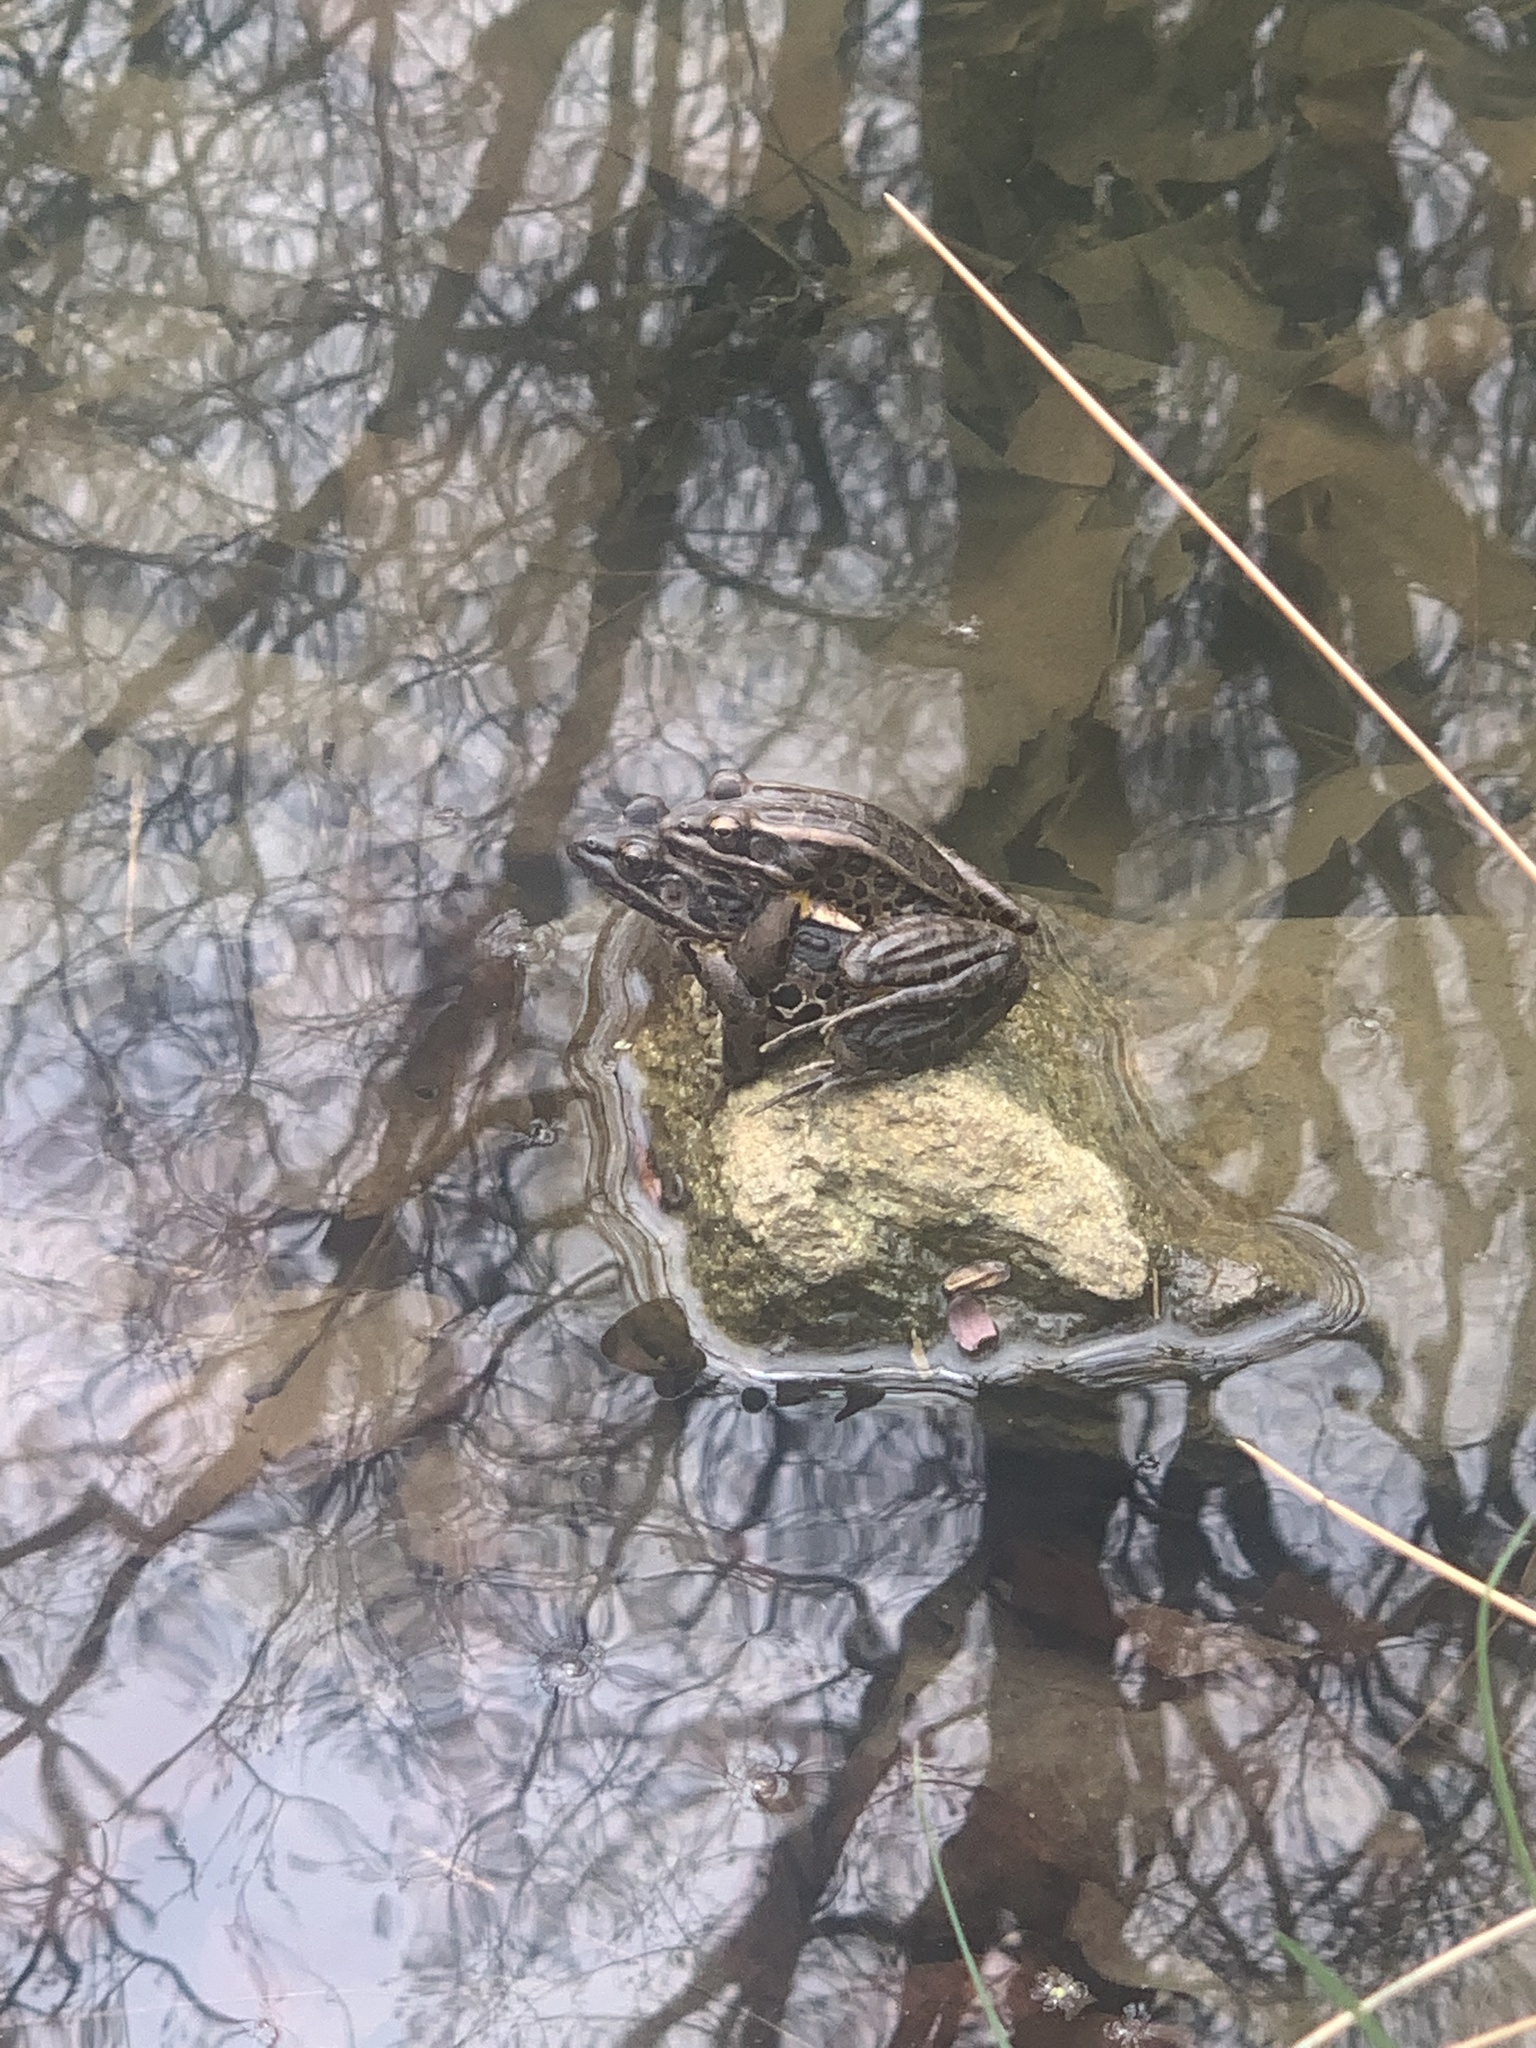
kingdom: Animalia
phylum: Chordata
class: Amphibia
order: Anura
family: Ranidae
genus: Lithobates
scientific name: Lithobates palustris
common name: Pickerel frog
